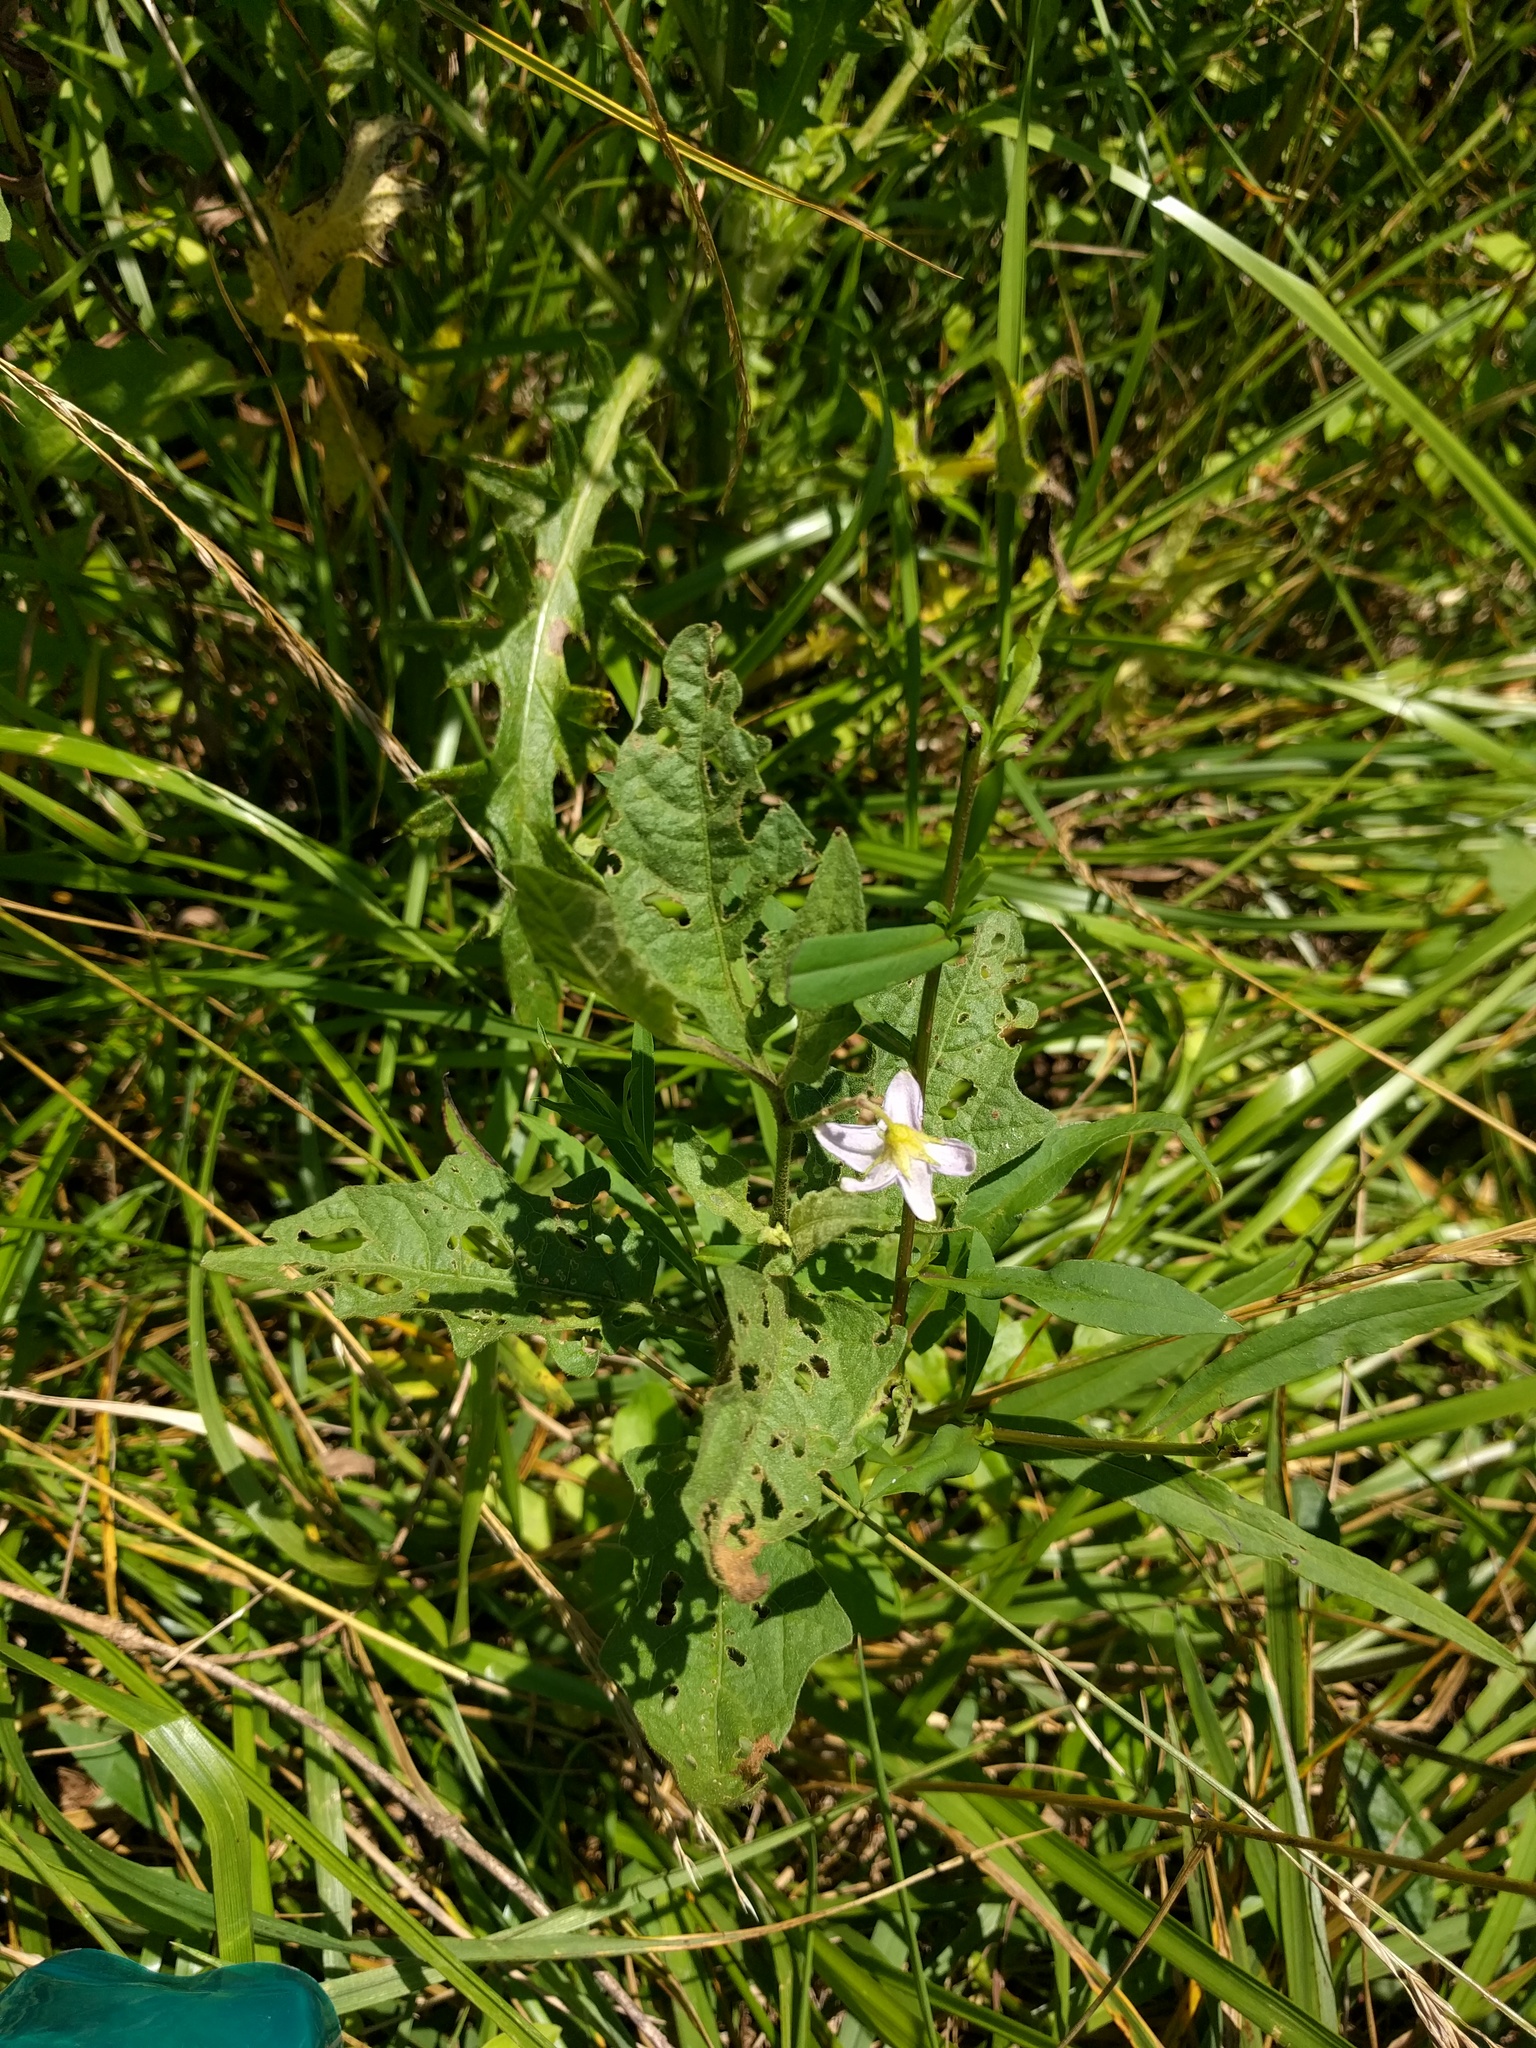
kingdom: Plantae
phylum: Tracheophyta
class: Magnoliopsida
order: Solanales
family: Solanaceae
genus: Solanum
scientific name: Solanum carolinense
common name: Horse-nettle
